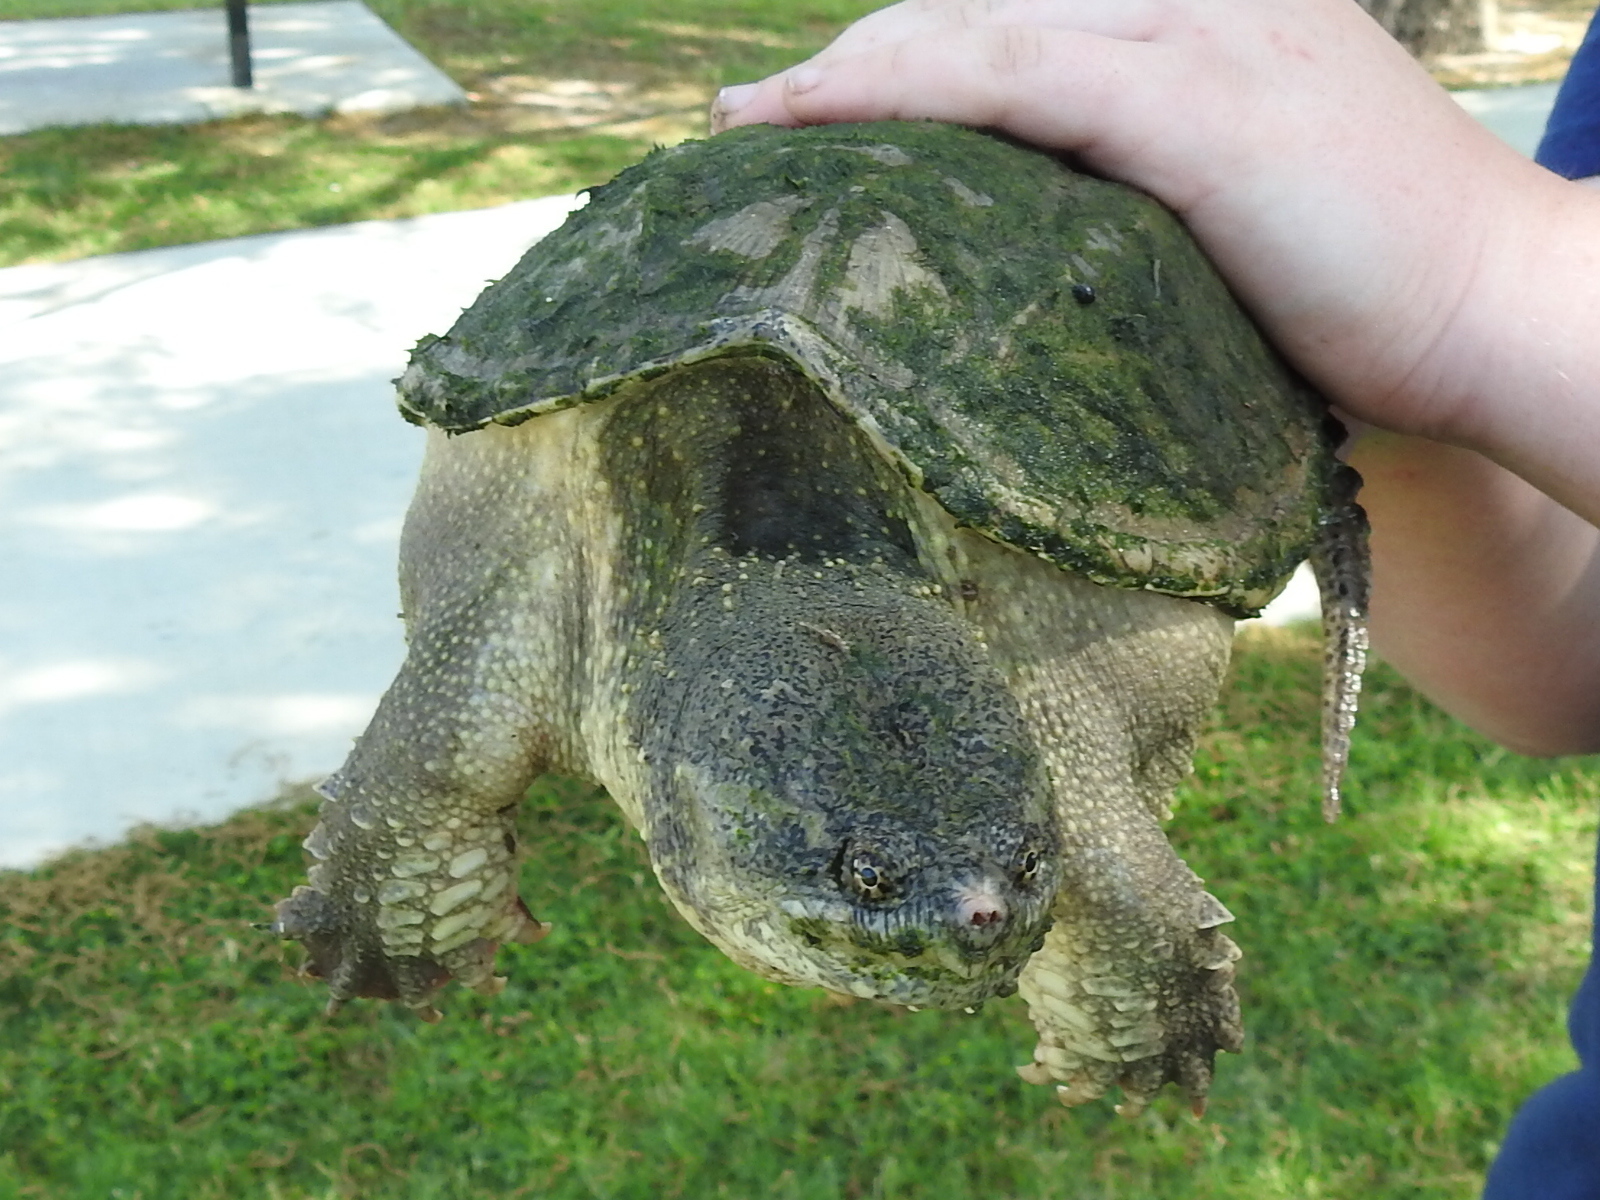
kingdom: Animalia
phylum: Chordata
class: Testudines
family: Chelydridae
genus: Chelydra
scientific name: Chelydra serpentina
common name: Common snapping turtle
